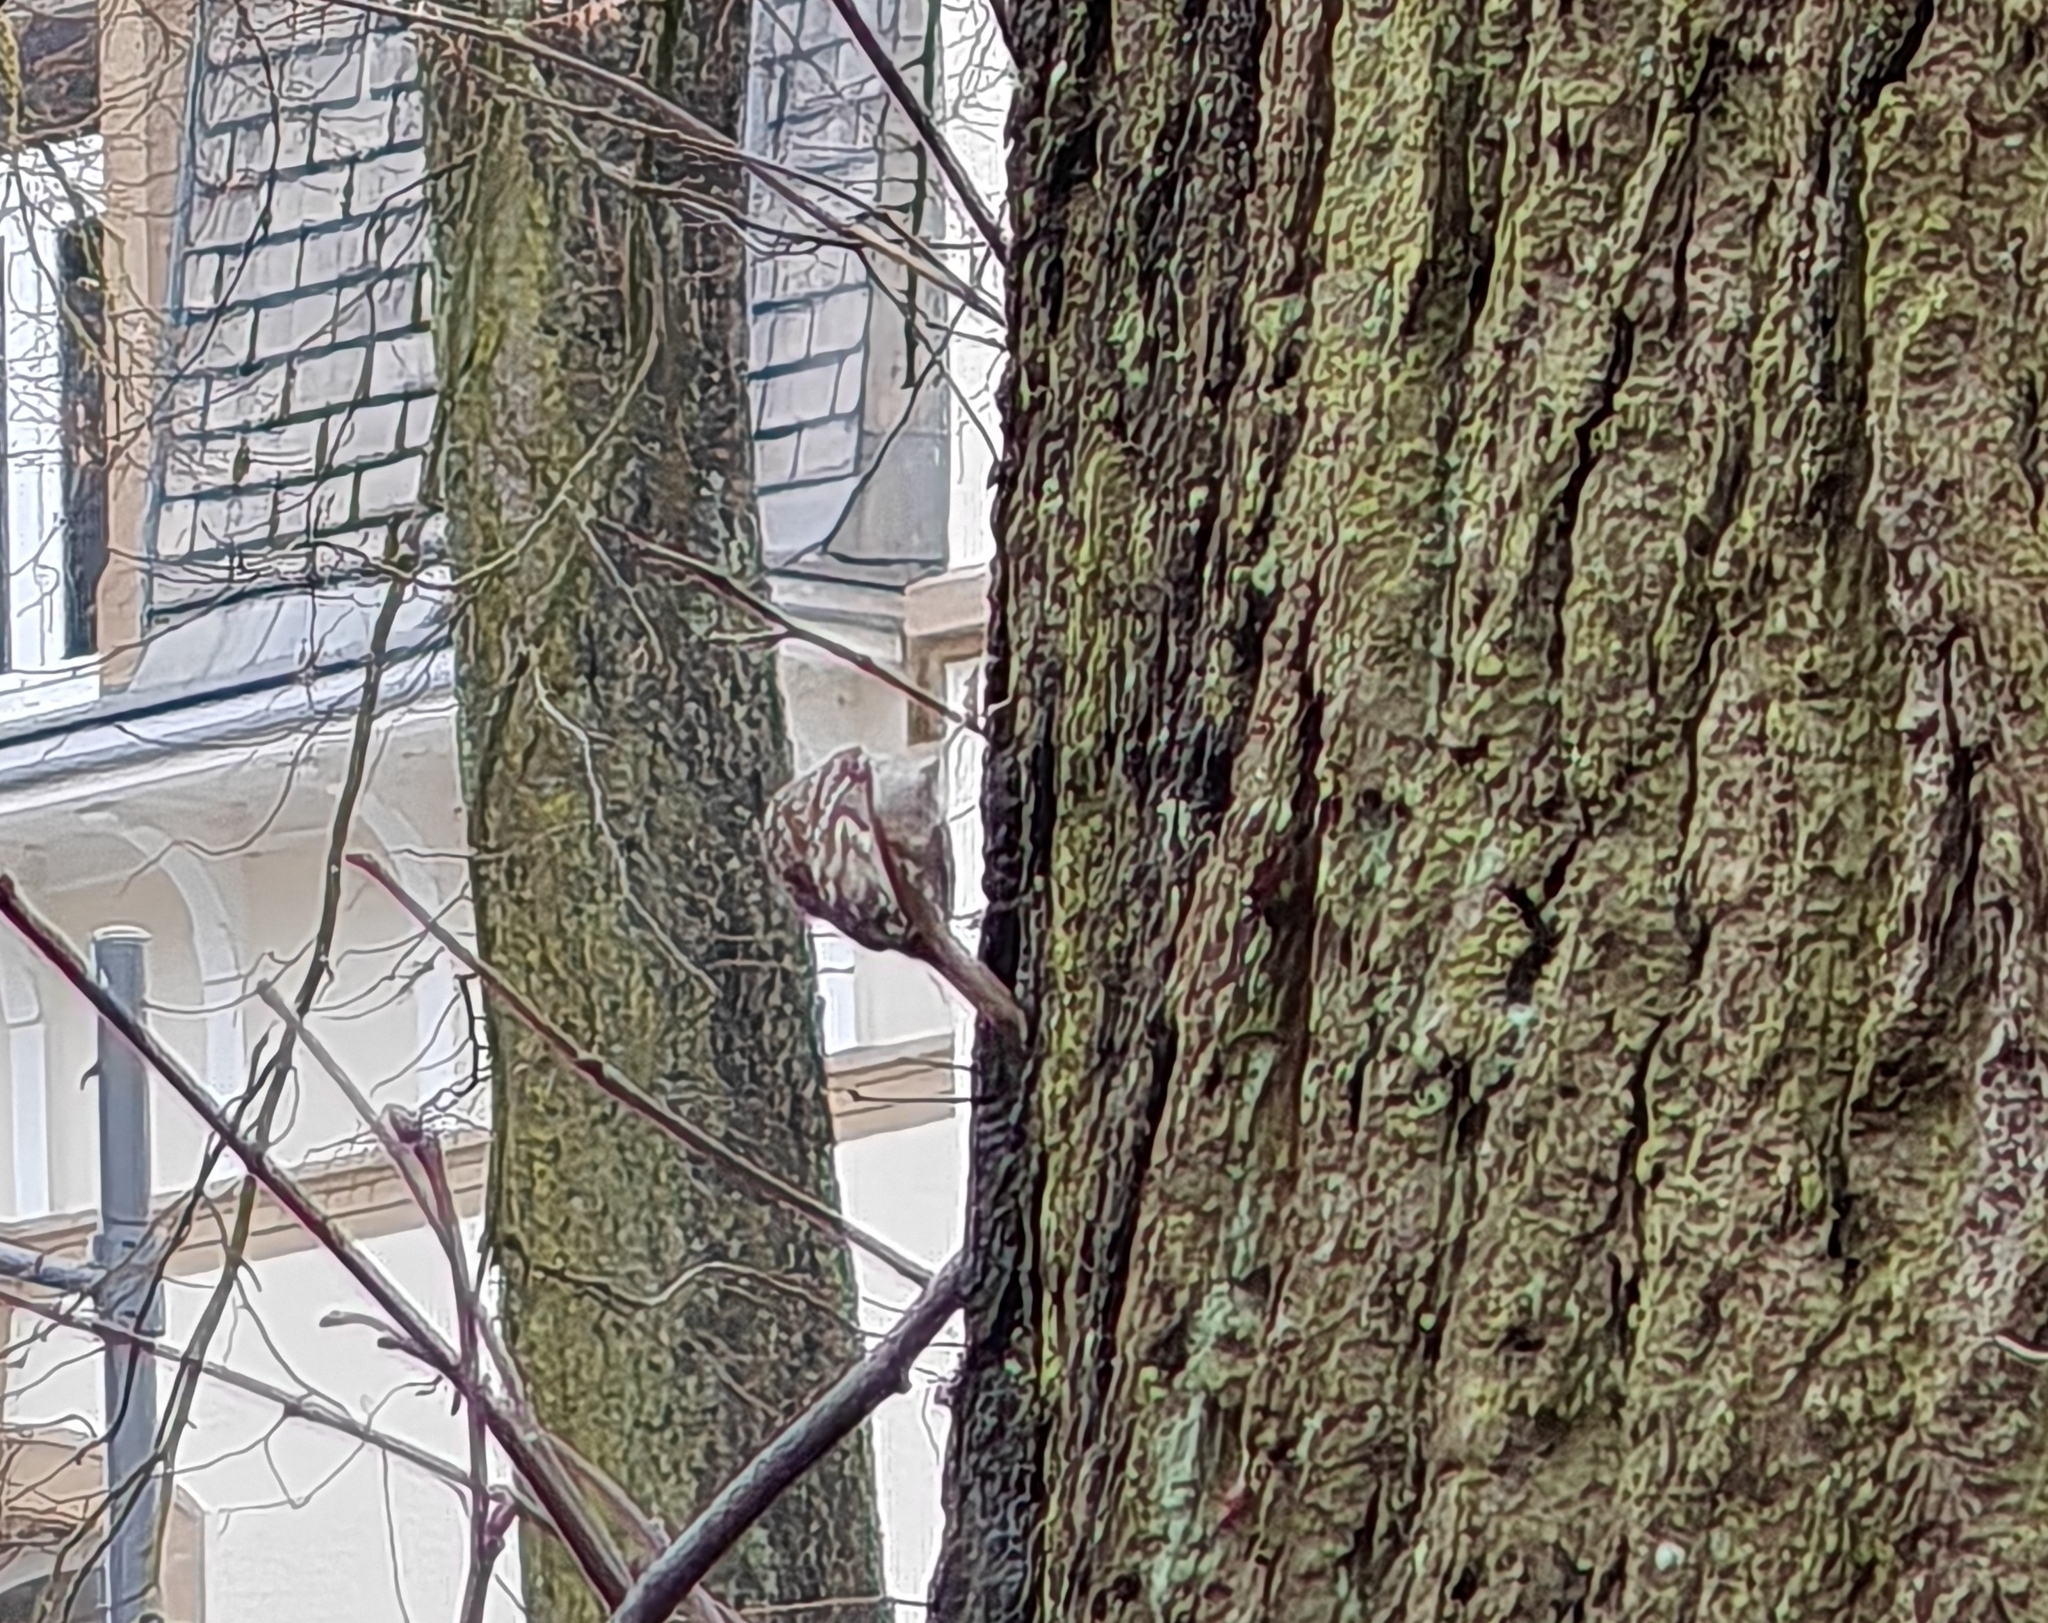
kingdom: Animalia
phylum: Chordata
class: Aves
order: Passeriformes
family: Certhiidae
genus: Certhia
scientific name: Certhia brachydactyla
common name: Short-toed treecreeper
